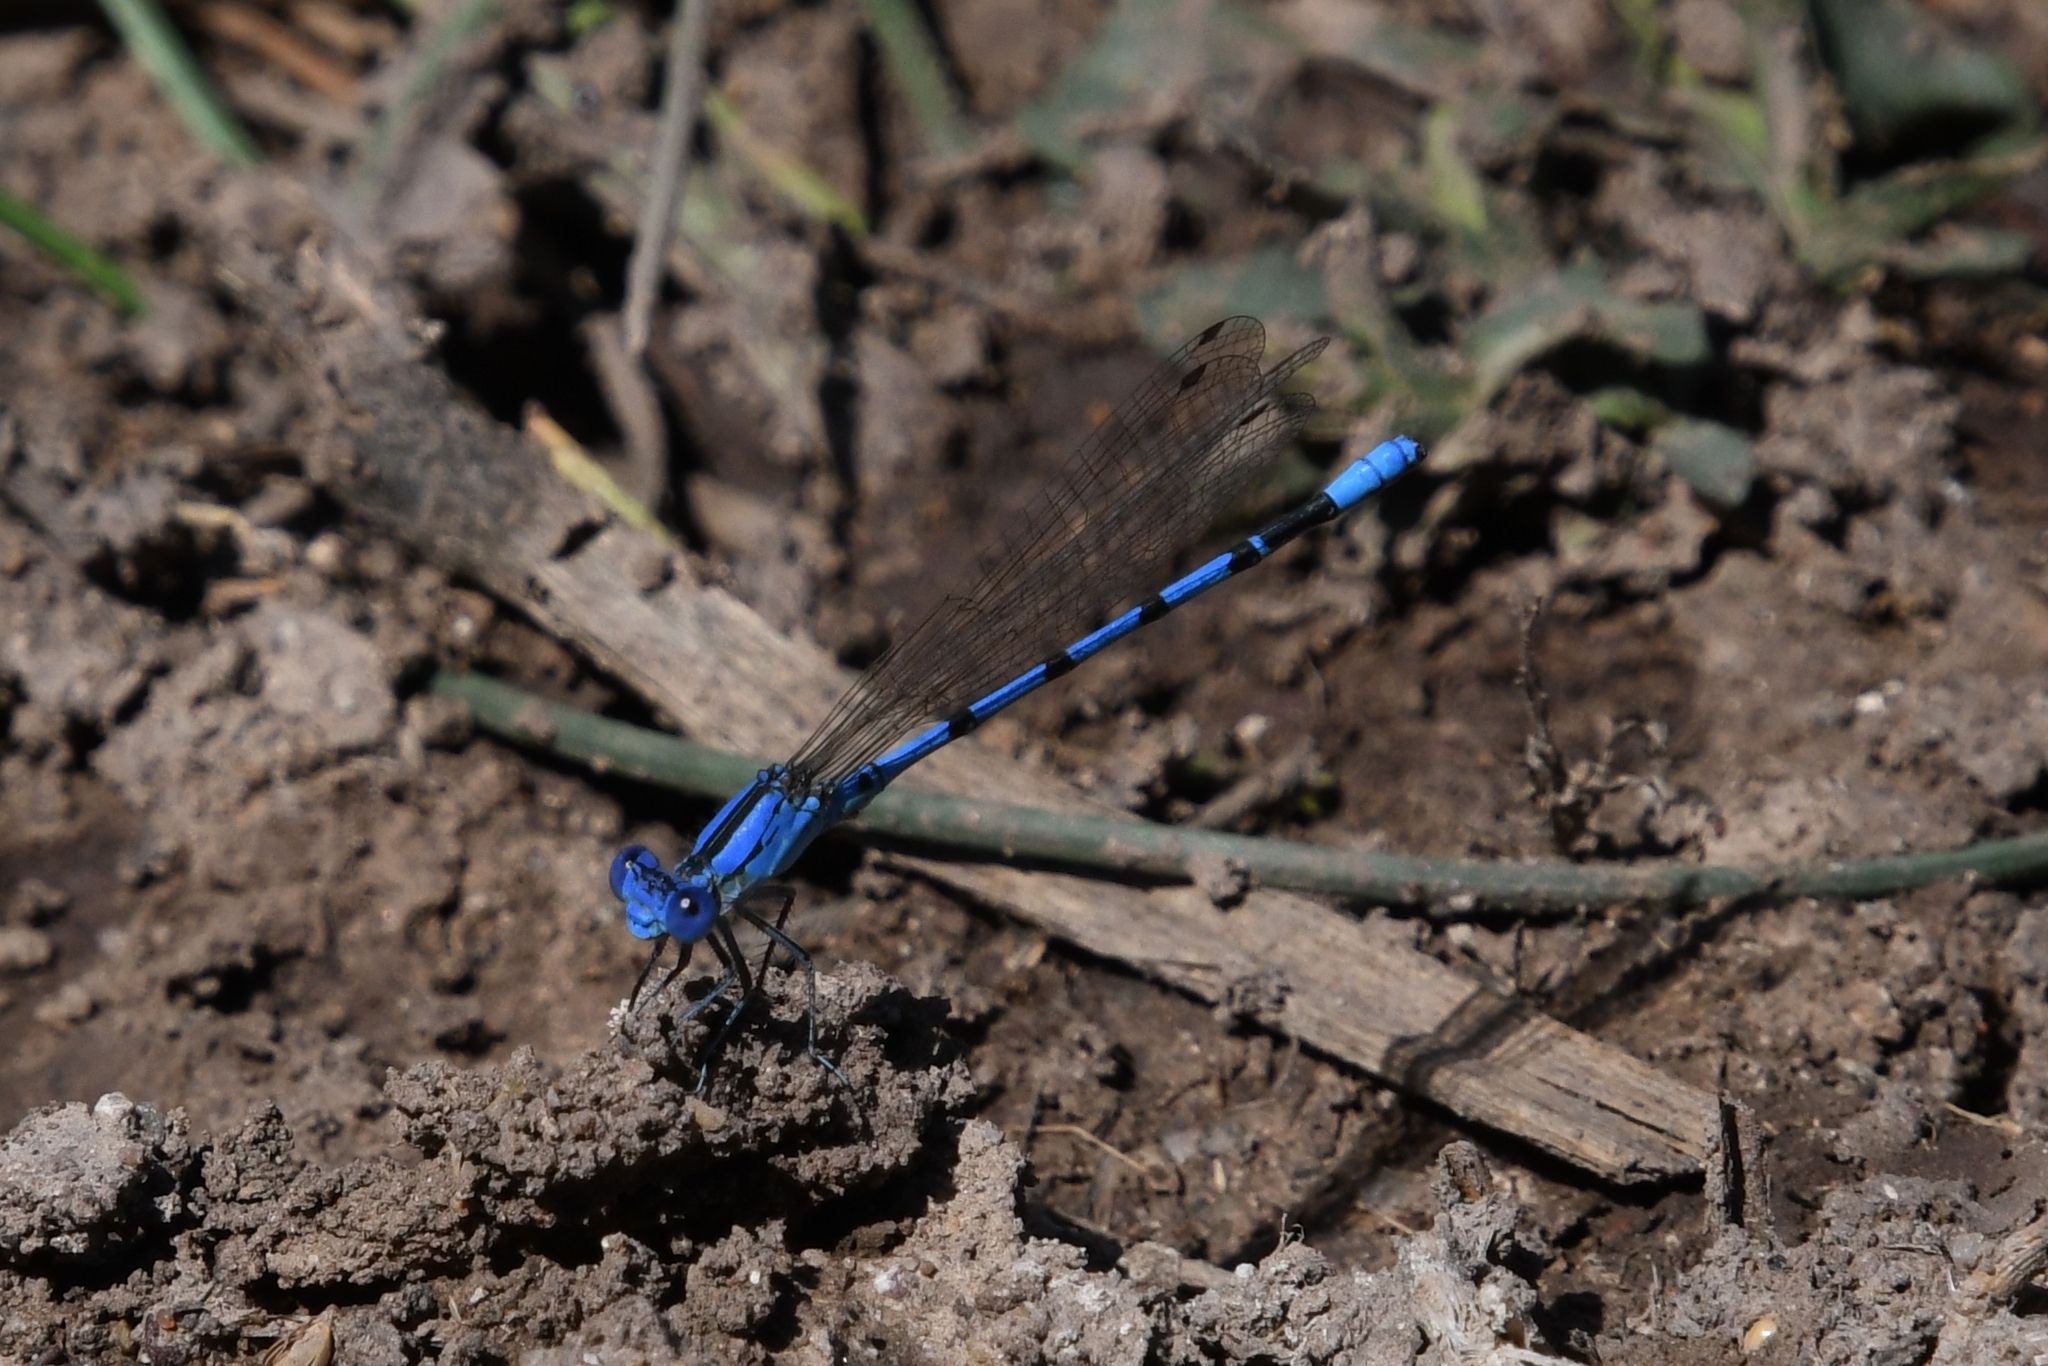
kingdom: Animalia
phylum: Arthropoda
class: Insecta
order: Odonata
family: Coenagrionidae
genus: Argia
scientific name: Argia nahuana
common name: Aztec dancer
